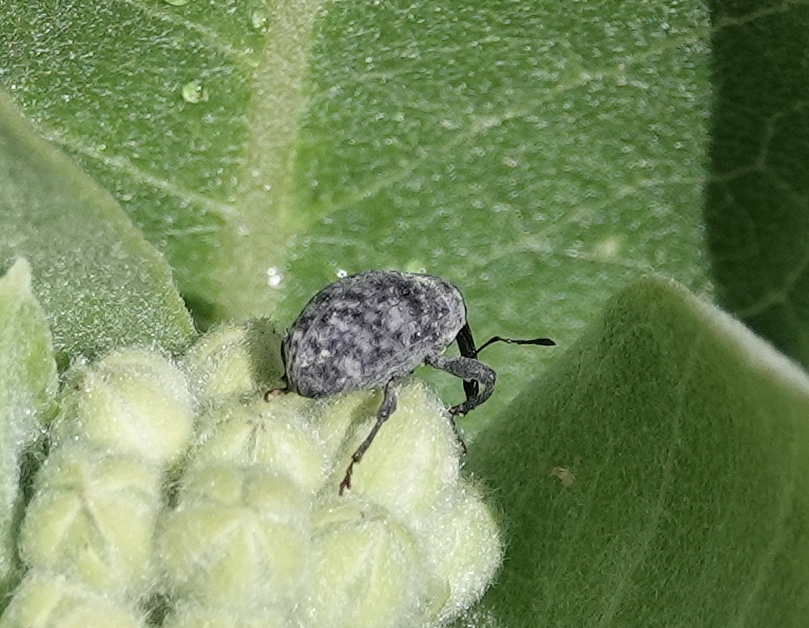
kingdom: Animalia
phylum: Arthropoda
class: Insecta
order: Coleoptera
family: Curculionidae
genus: Rhyssomatus
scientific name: Rhyssomatus lineaticollis
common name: Milkweed stem weevil
